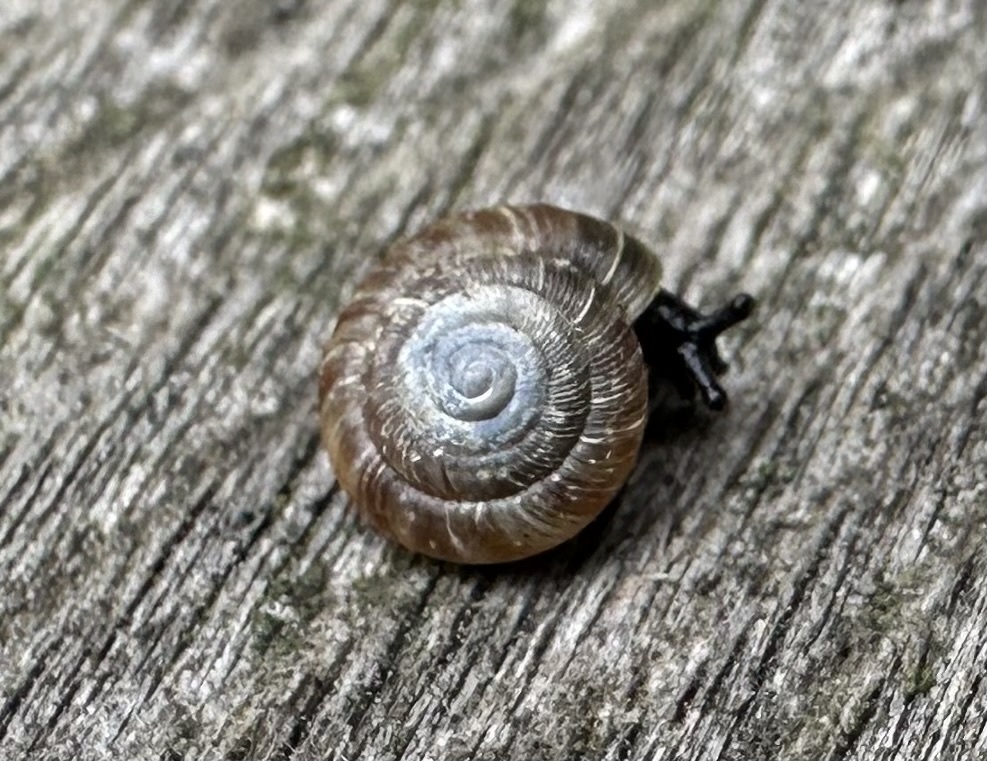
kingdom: Animalia
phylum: Mollusca
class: Gastropoda
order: Stylommatophora
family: Discidae
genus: Discus
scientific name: Discus rotundatus
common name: Rounded snail
